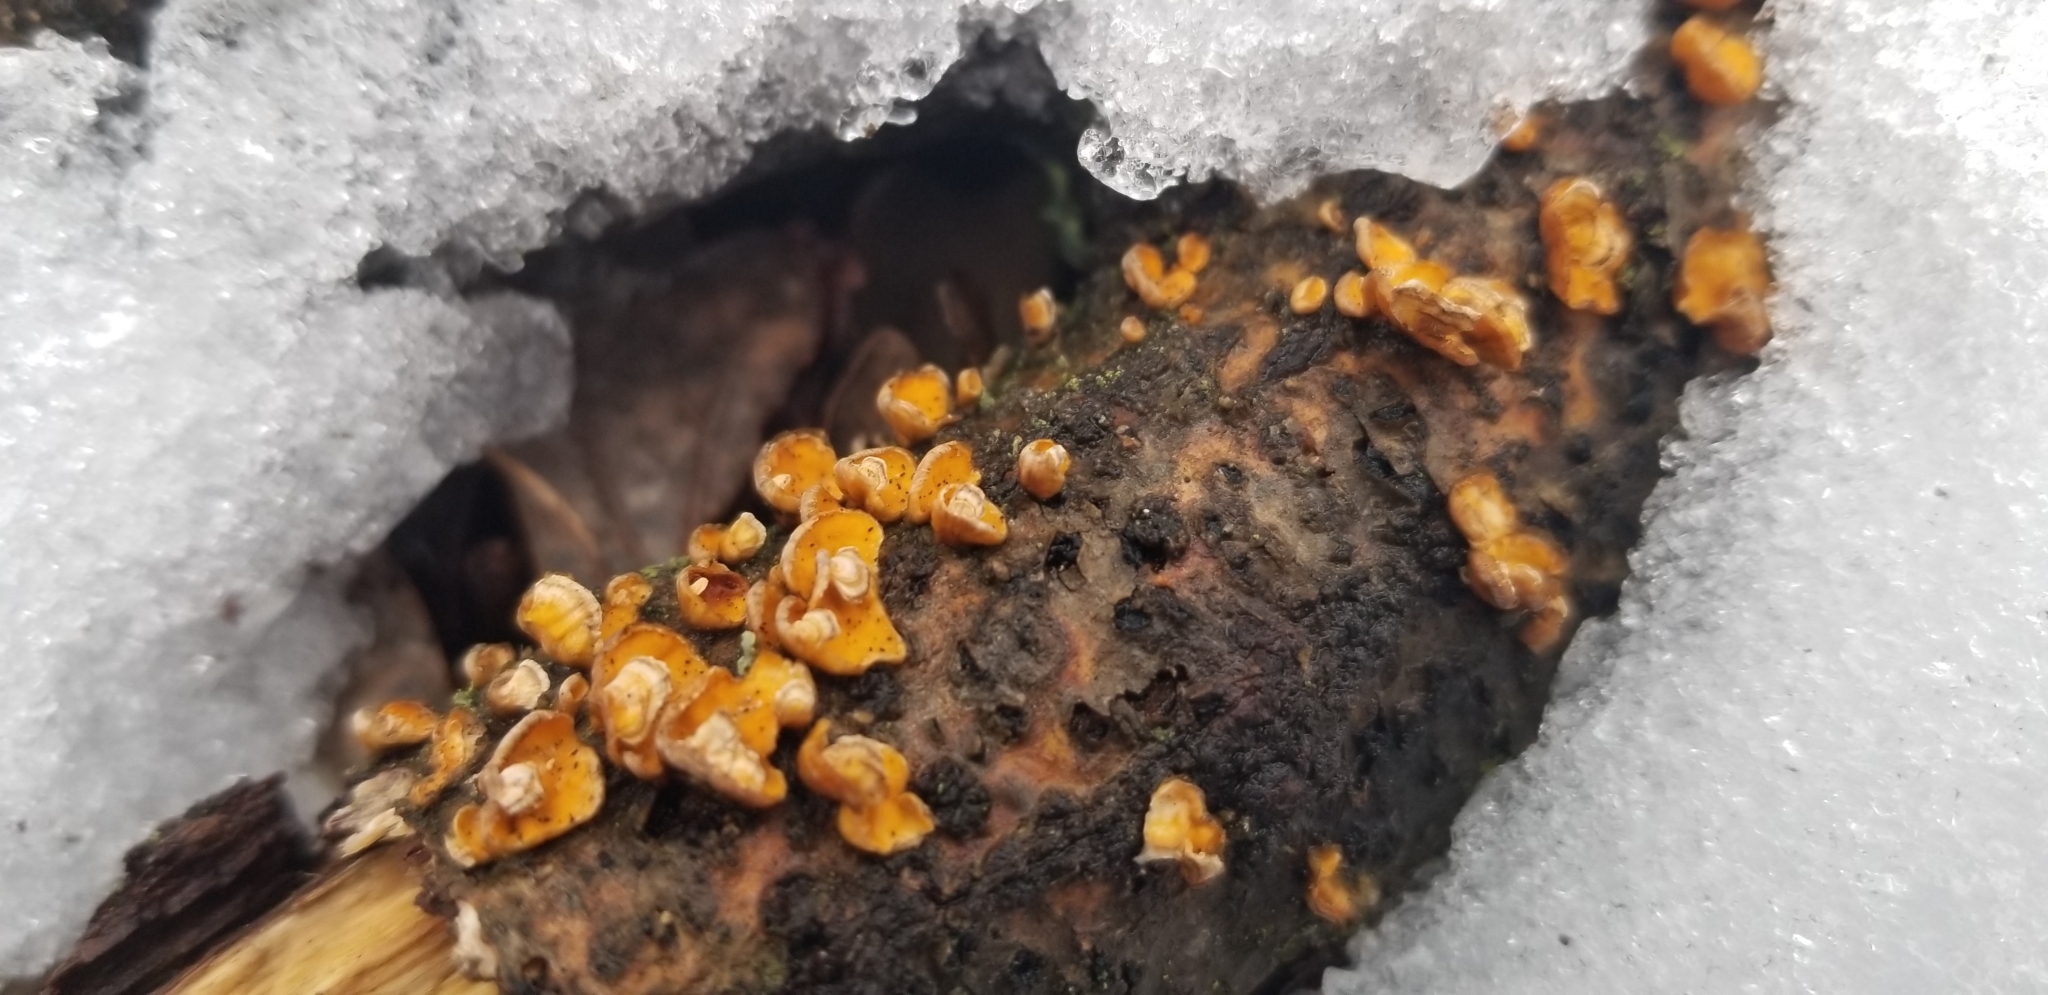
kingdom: Fungi
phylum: Basidiomycota
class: Agaricomycetes
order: Russulales
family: Stereaceae
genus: Stereum
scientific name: Stereum complicatum
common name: Crowded parchment
